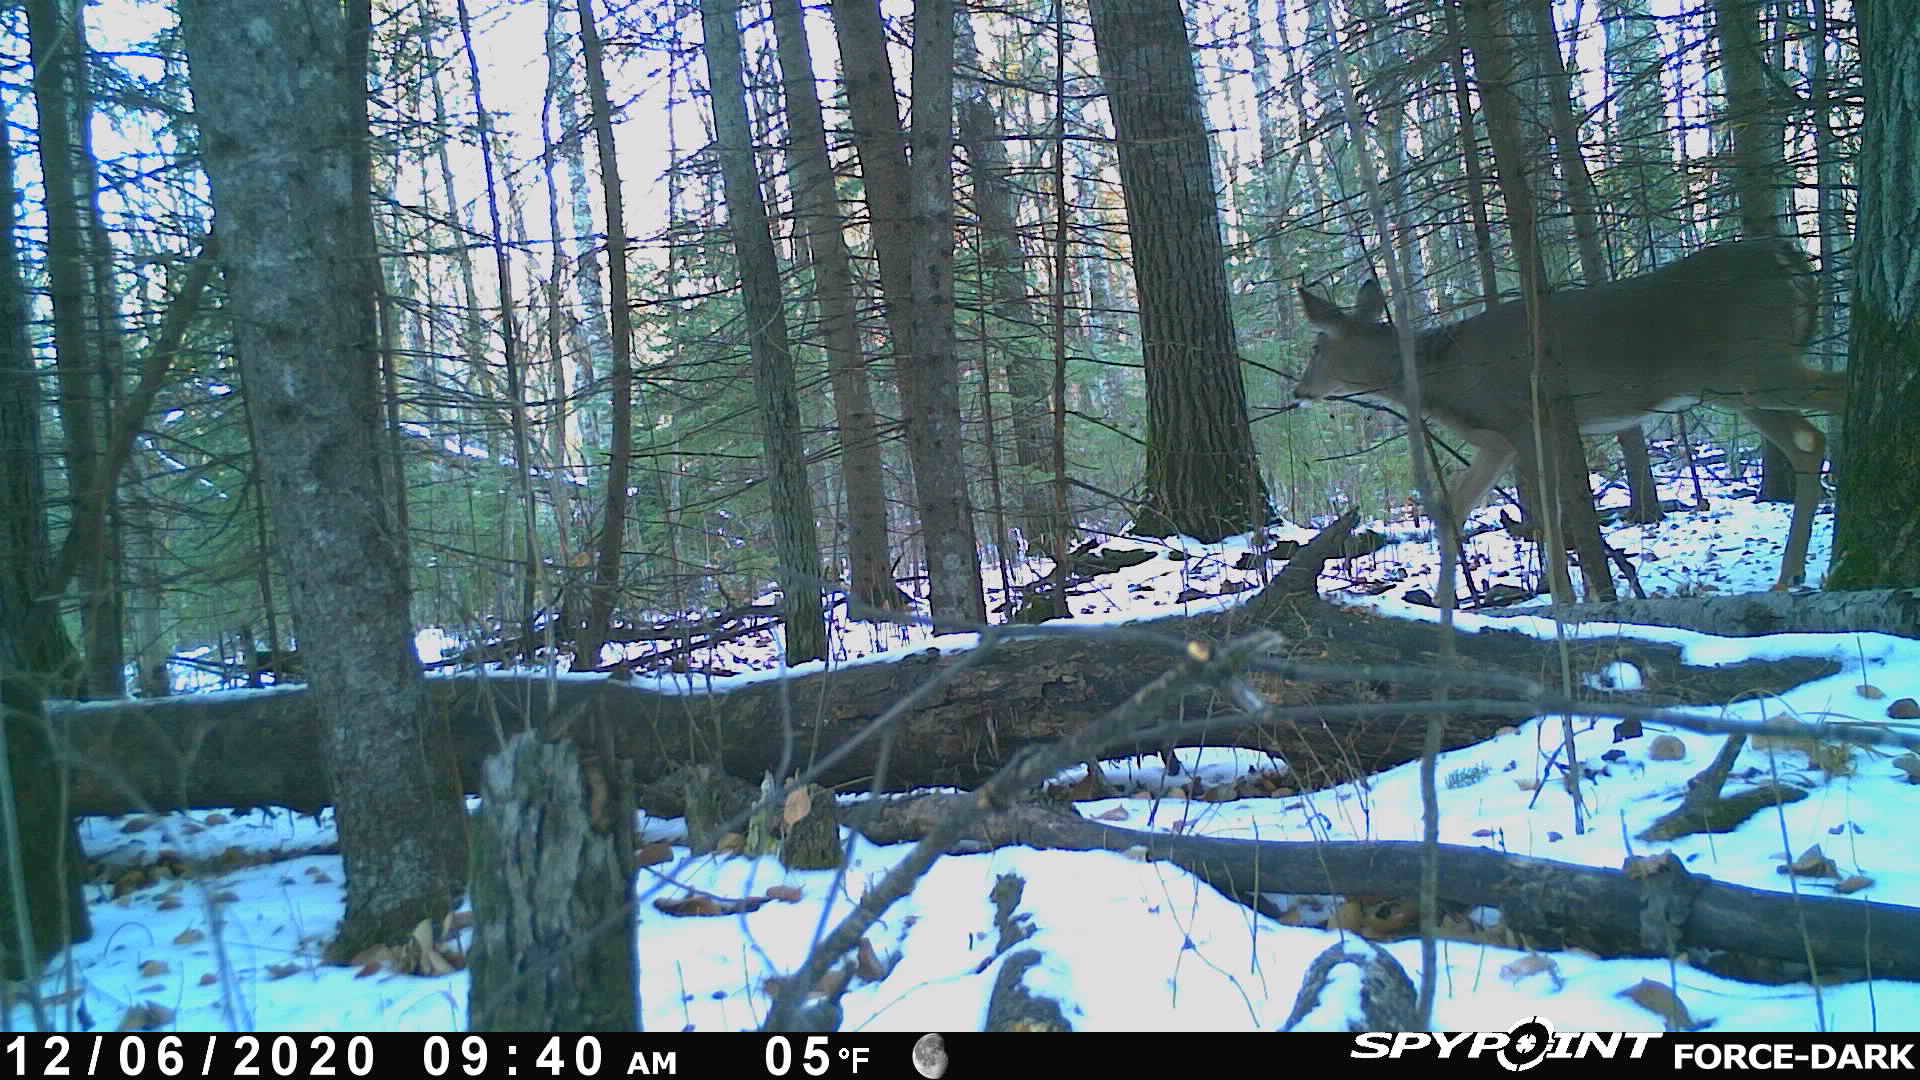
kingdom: Animalia
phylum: Chordata
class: Mammalia
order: Artiodactyla
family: Cervidae
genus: Odocoileus
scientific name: Odocoileus virginianus
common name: White-tailed deer
